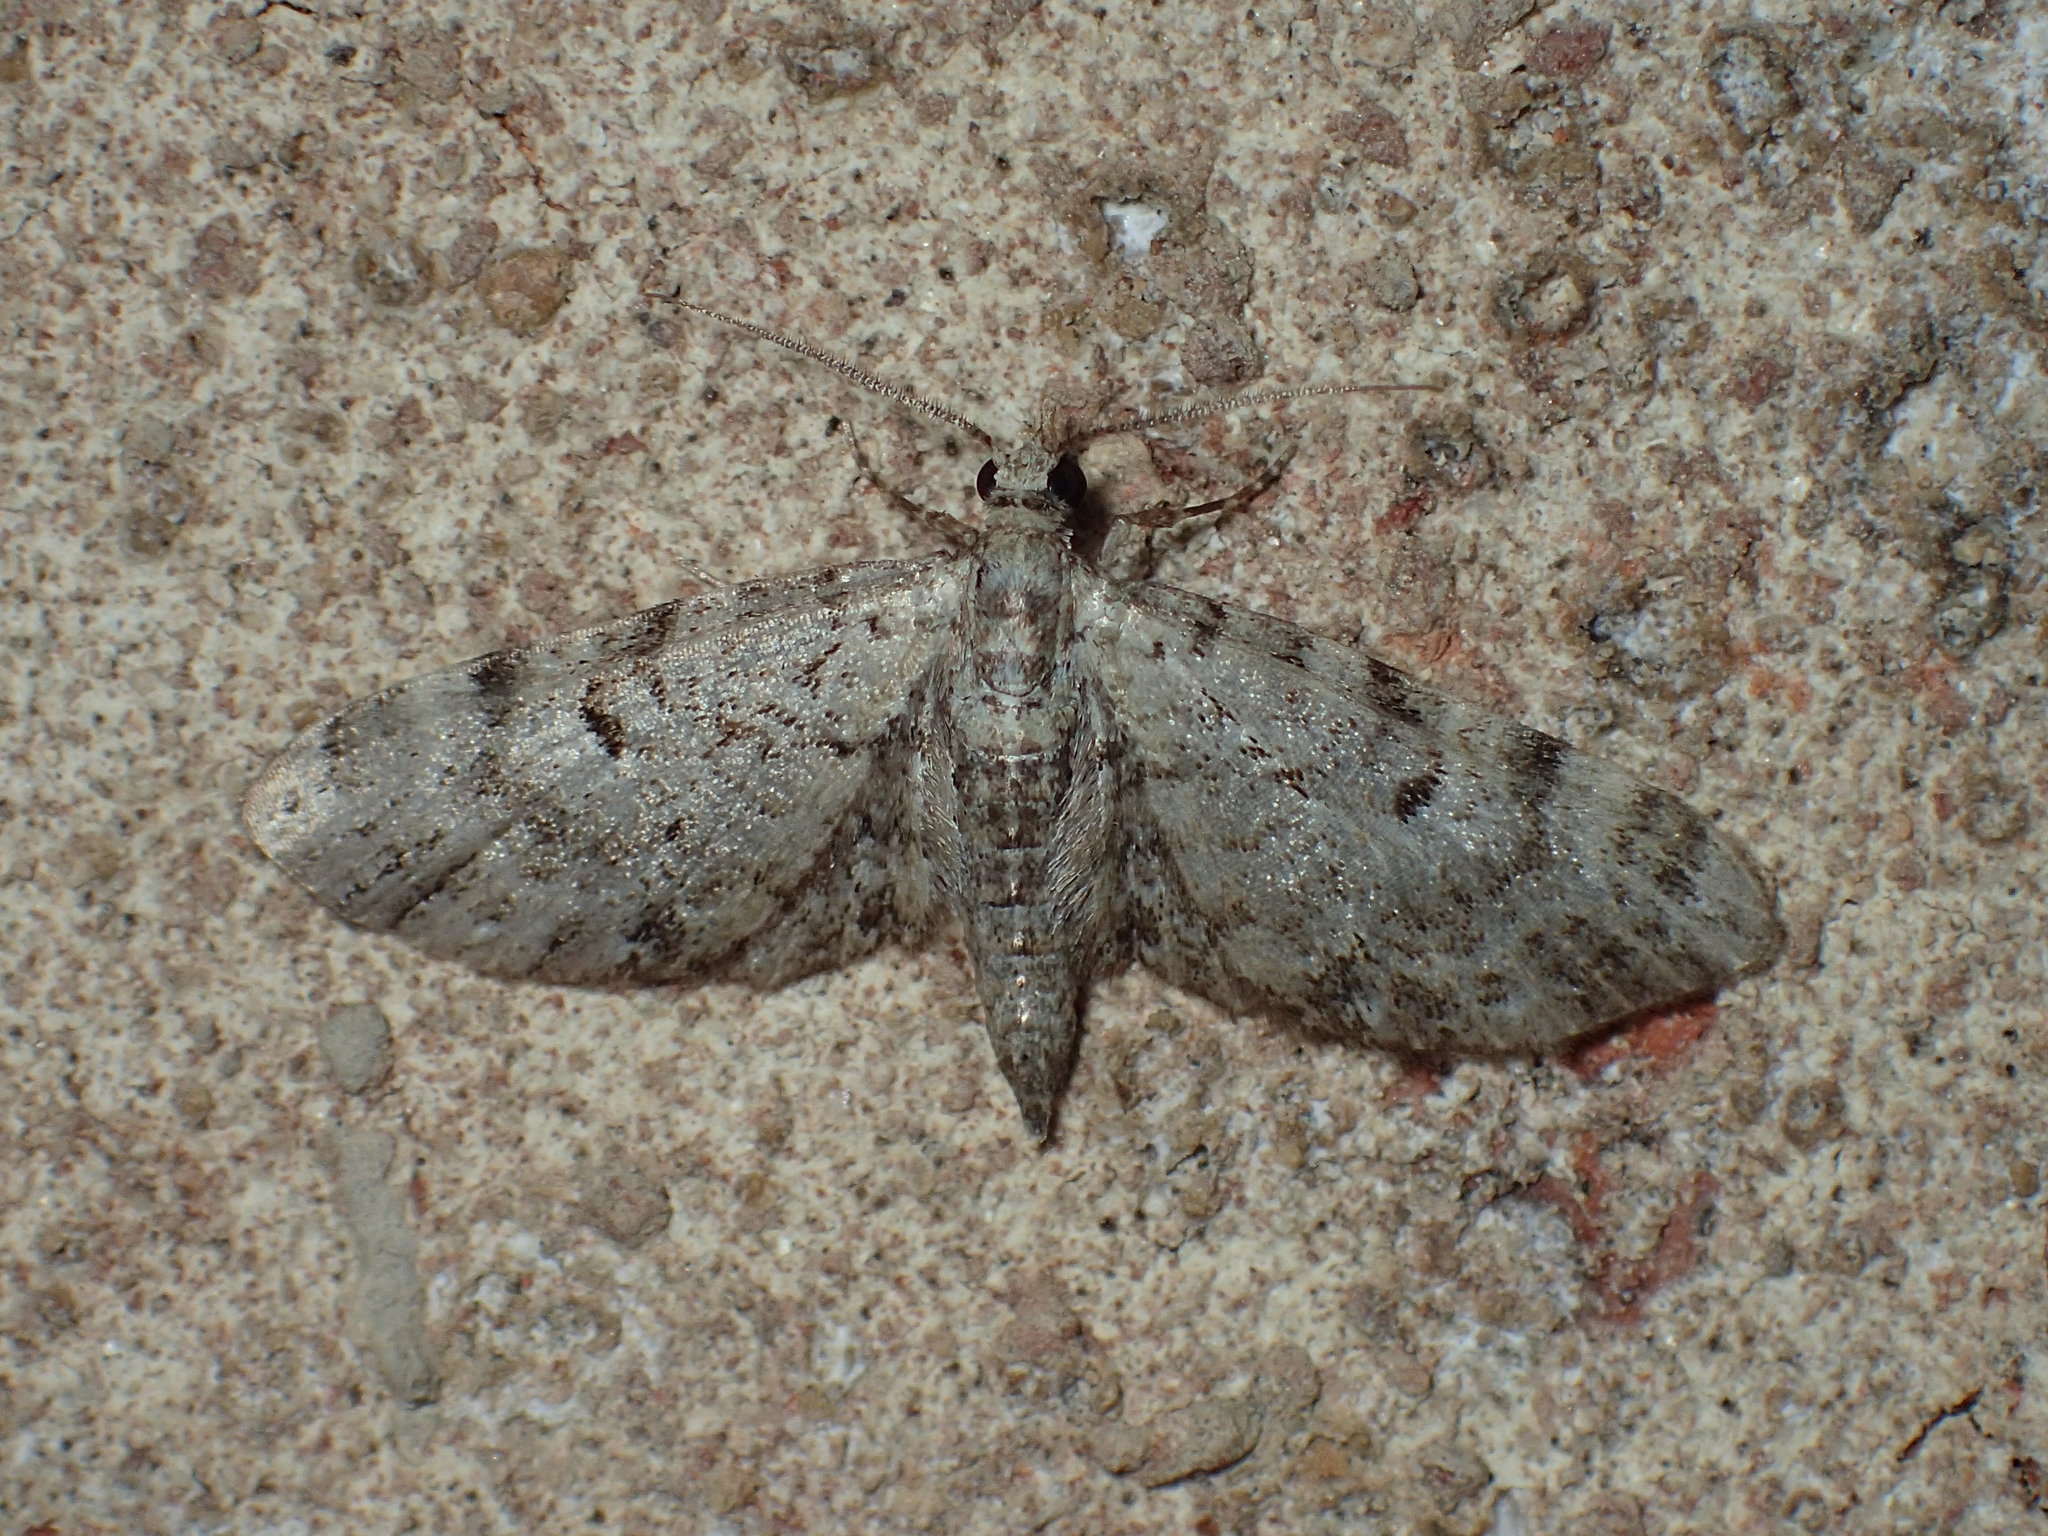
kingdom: Animalia
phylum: Arthropoda
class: Insecta
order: Lepidoptera
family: Geometridae
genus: Eupithecia
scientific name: Eupithecia miserulata
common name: Common eupithecia
